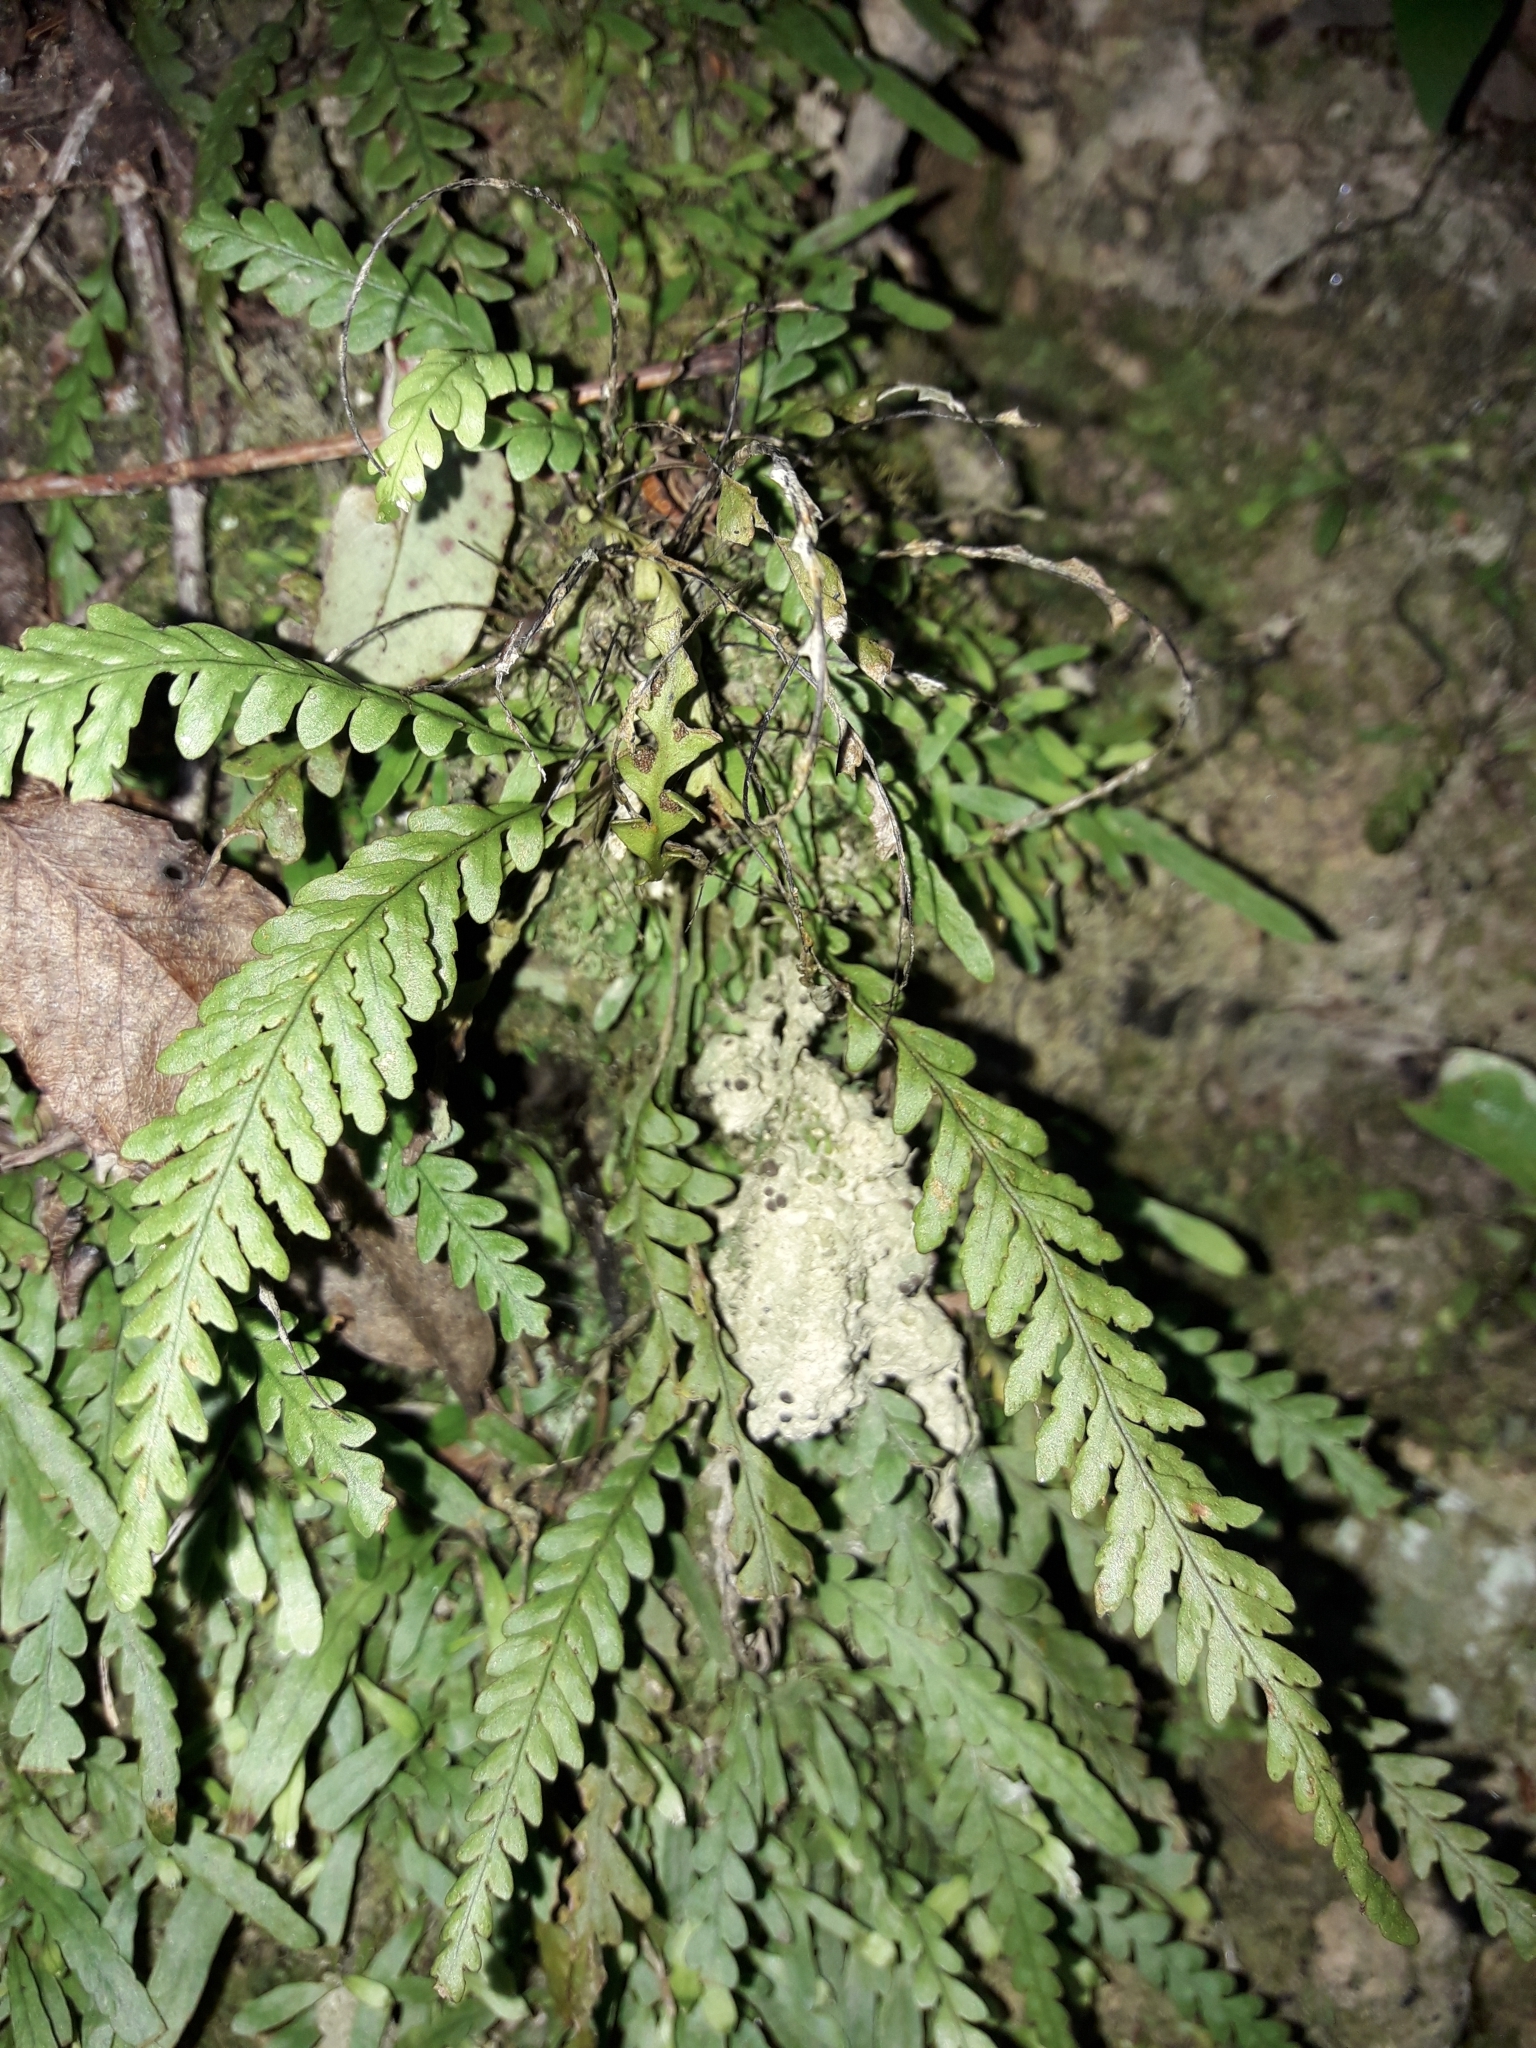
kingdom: Plantae
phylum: Tracheophyta
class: Polypodiopsida
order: Polypodiales
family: Polypodiaceae
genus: Notogrammitis
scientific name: Notogrammitis heterophylla
